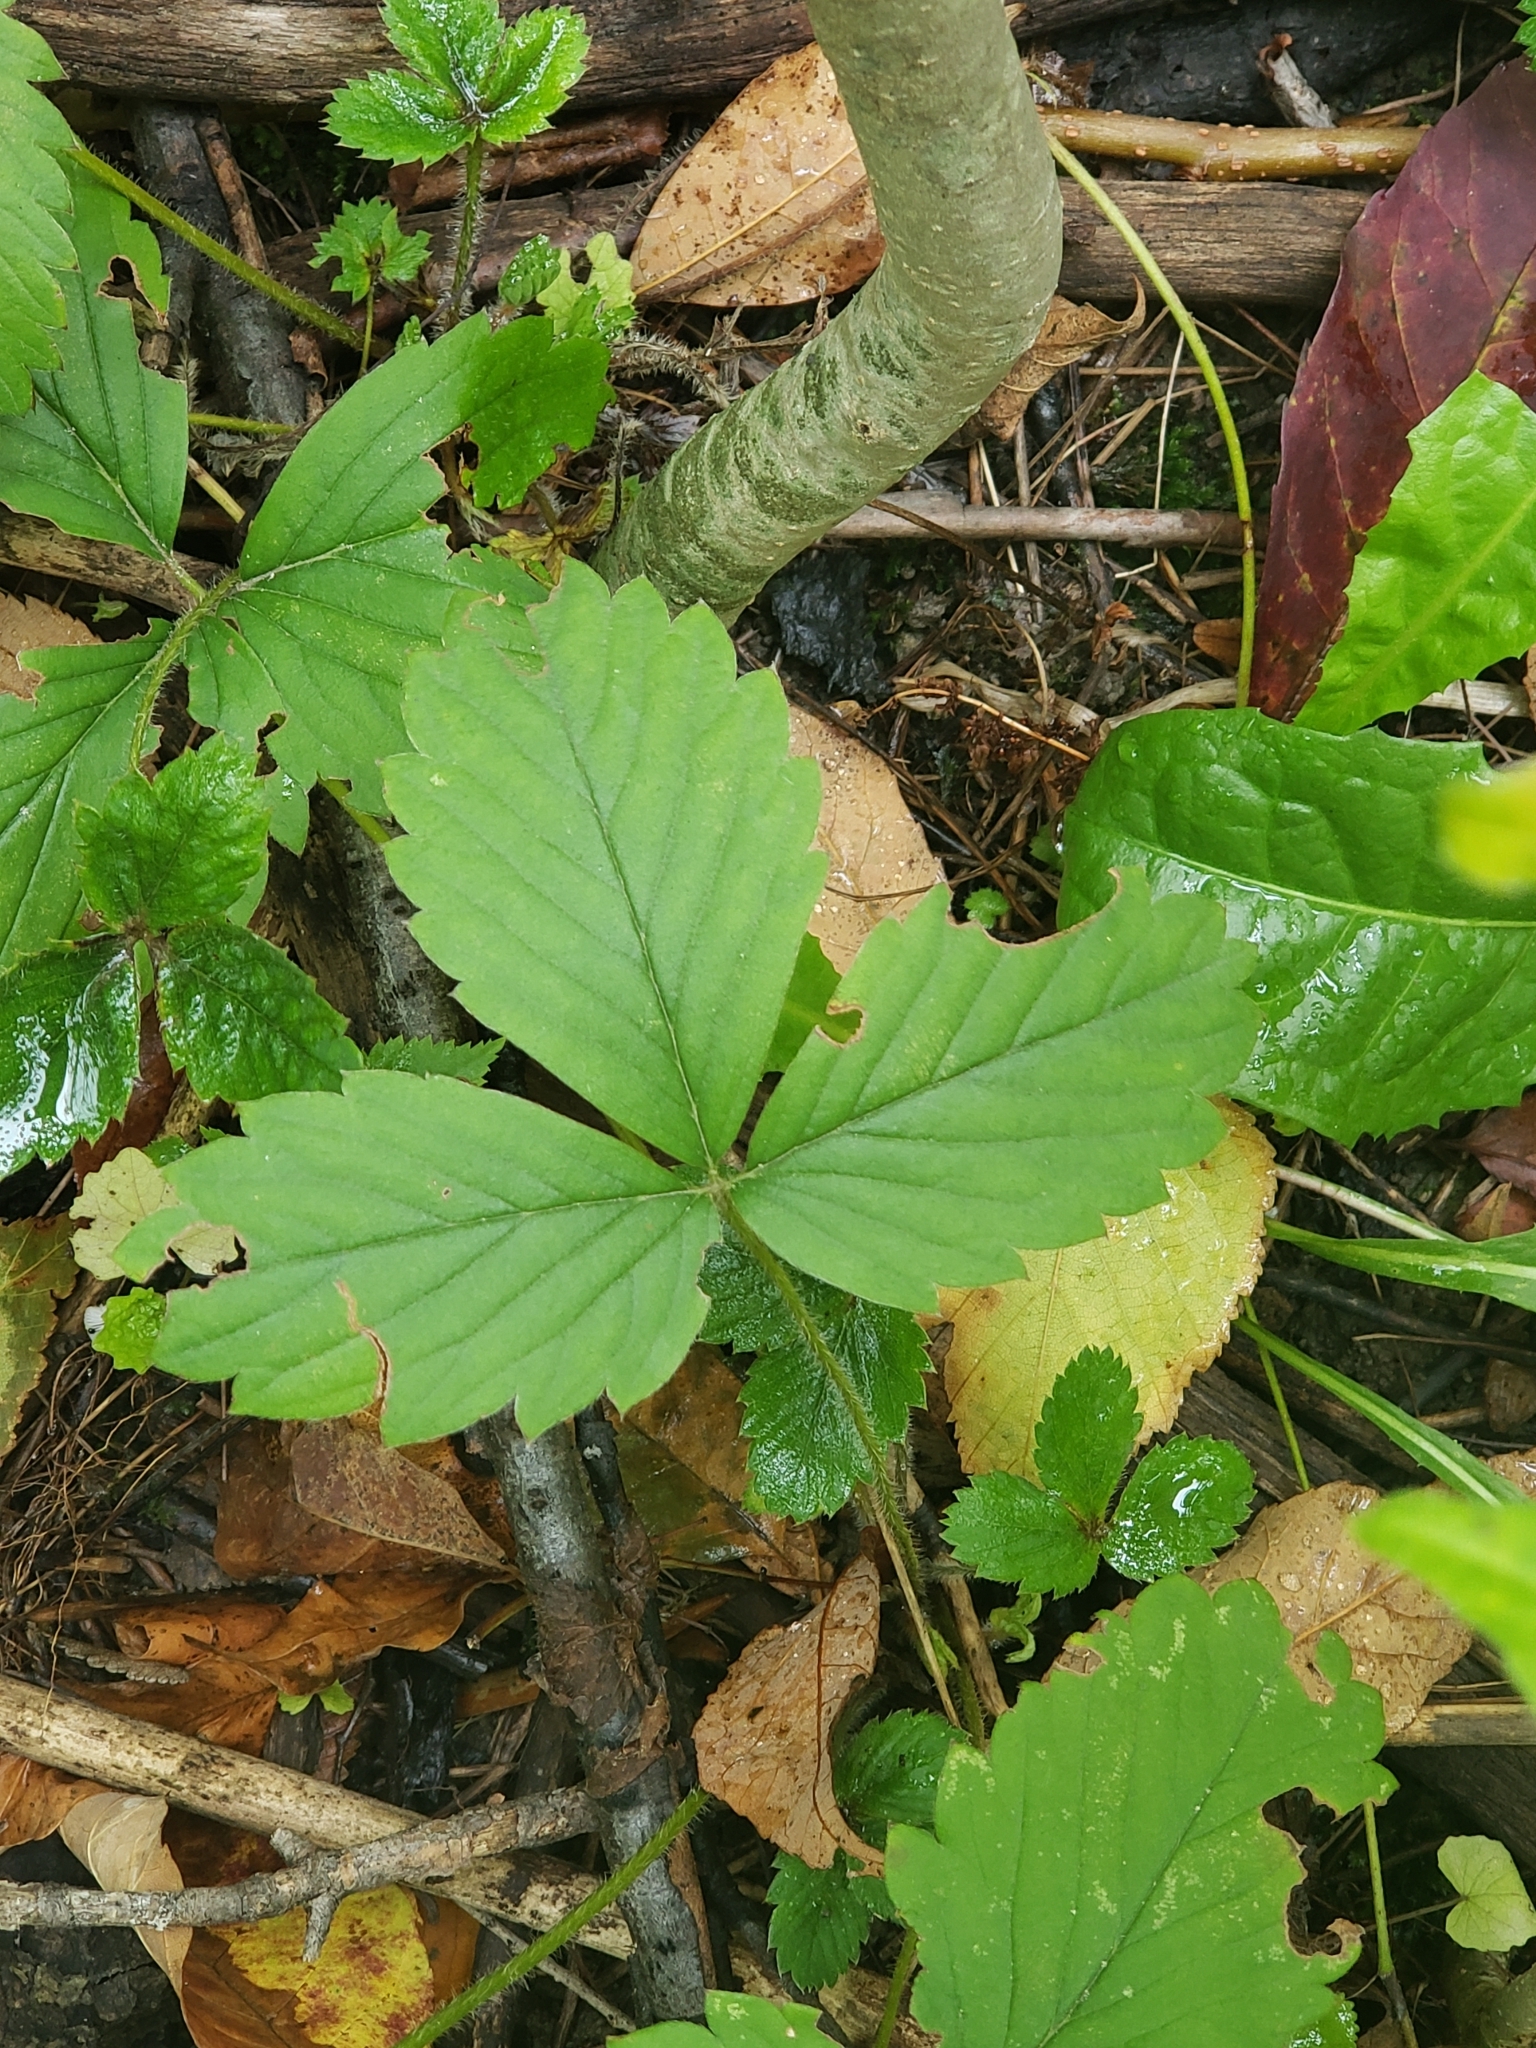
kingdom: Plantae
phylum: Tracheophyta
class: Magnoliopsida
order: Rosales
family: Rosaceae
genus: Fragaria
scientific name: Fragaria virginiana
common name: Thickleaved wild strawberry
